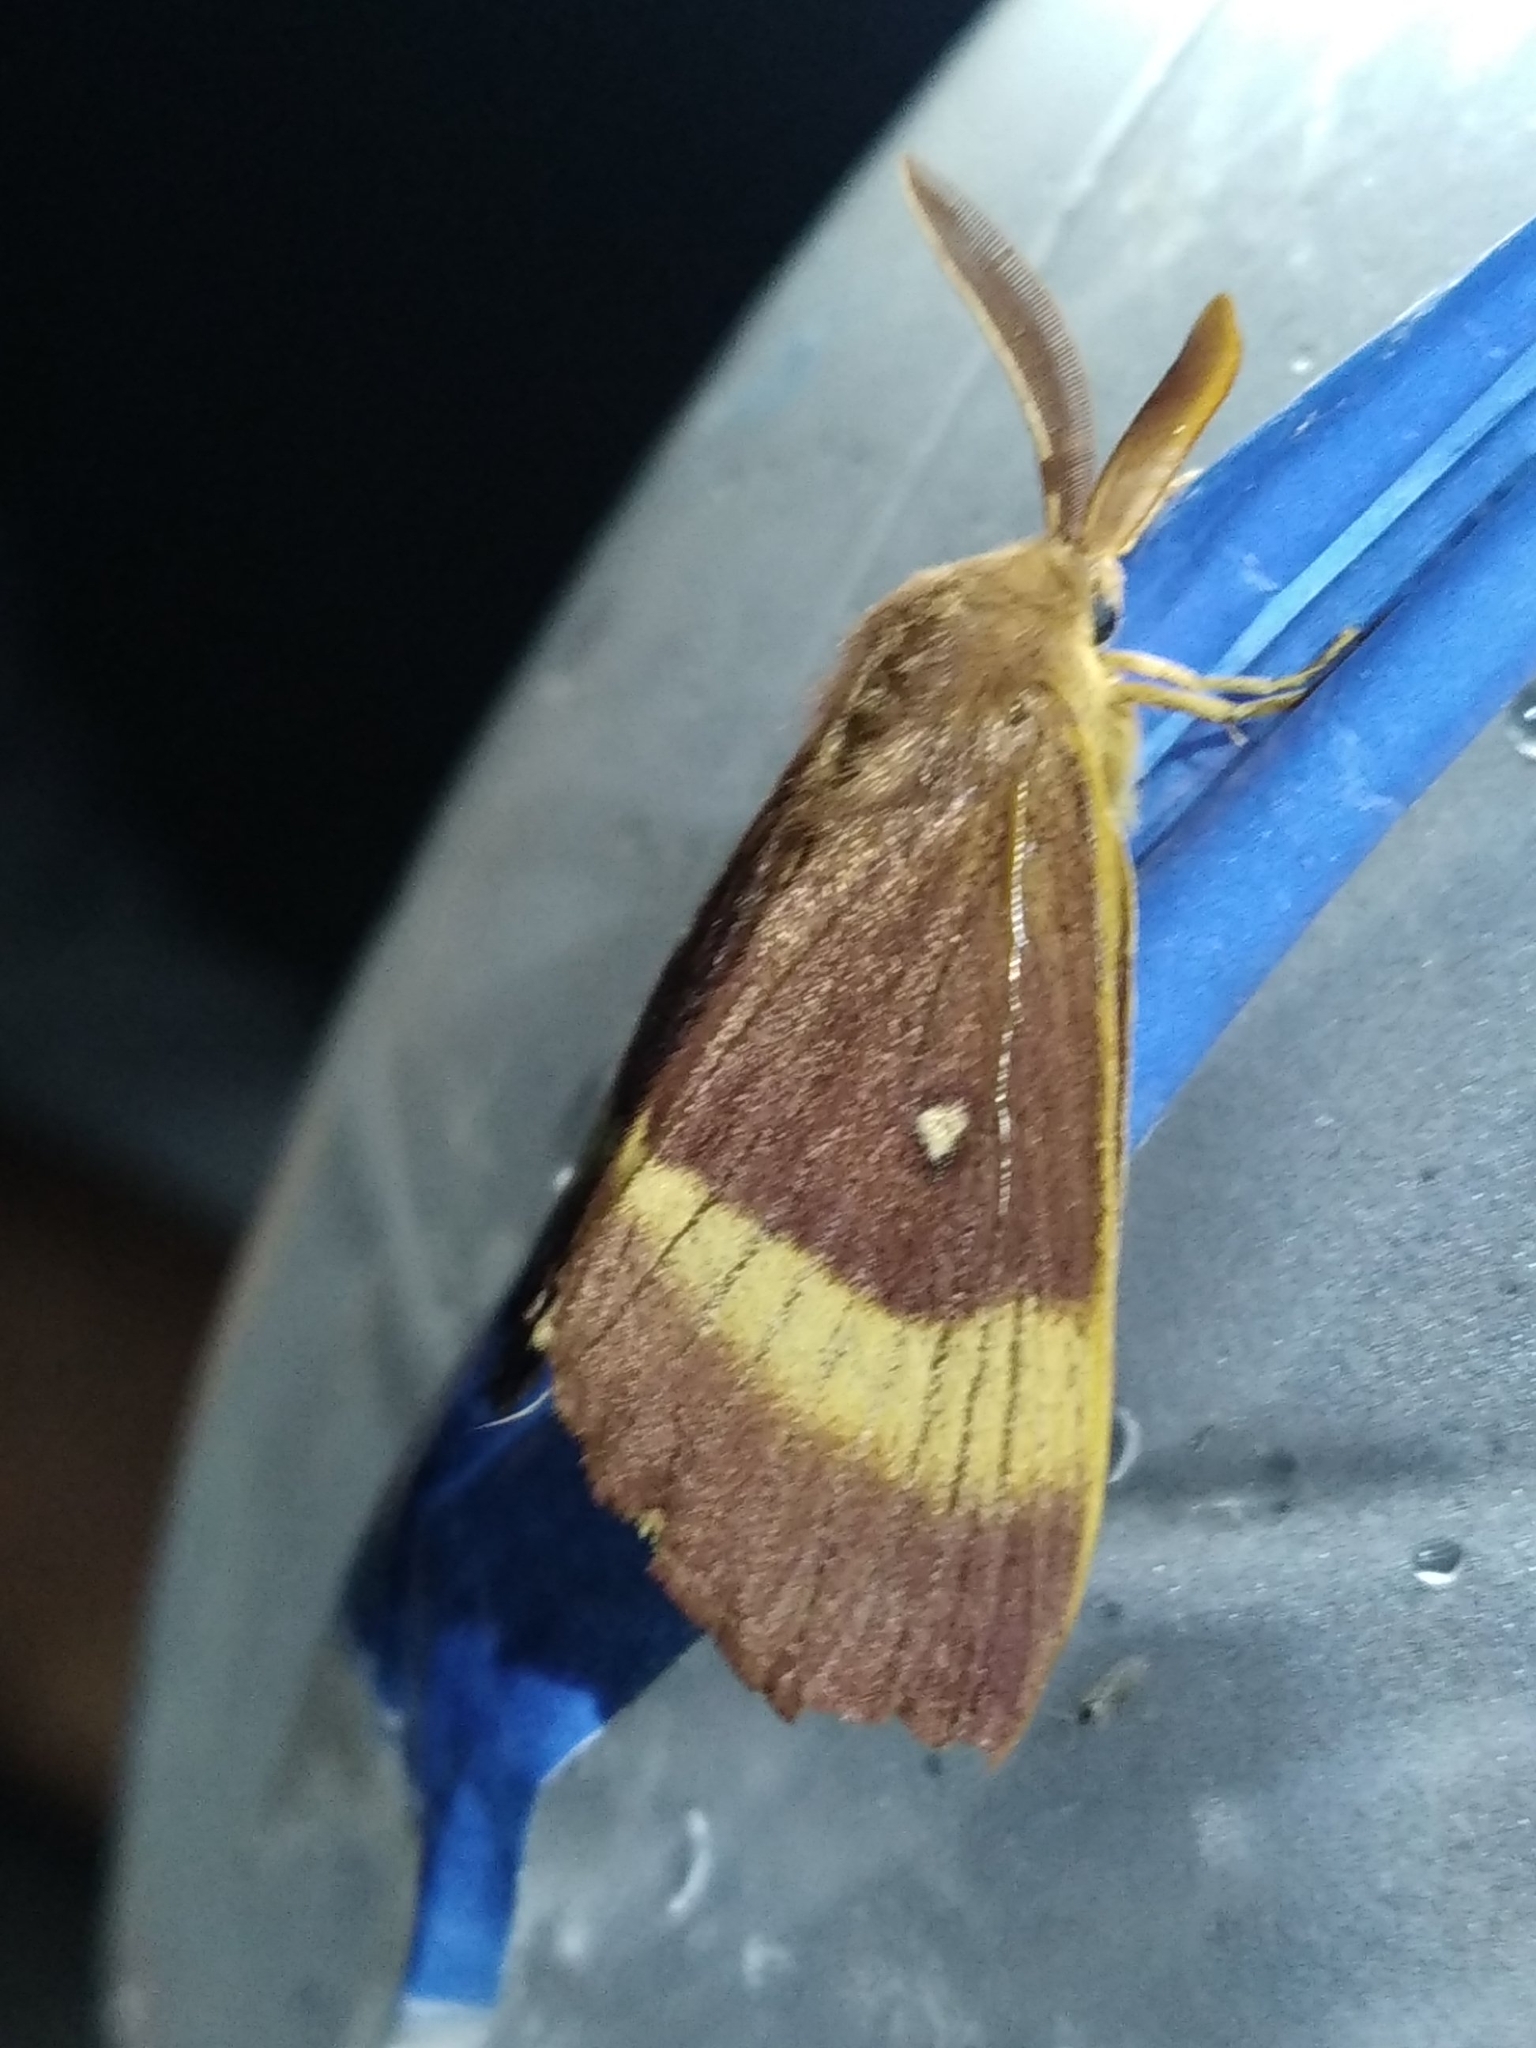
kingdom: Animalia
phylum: Arthropoda
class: Insecta
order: Lepidoptera
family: Lasiocampidae
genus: Lasiocampa
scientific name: Lasiocampa quercus
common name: Oak eggar
